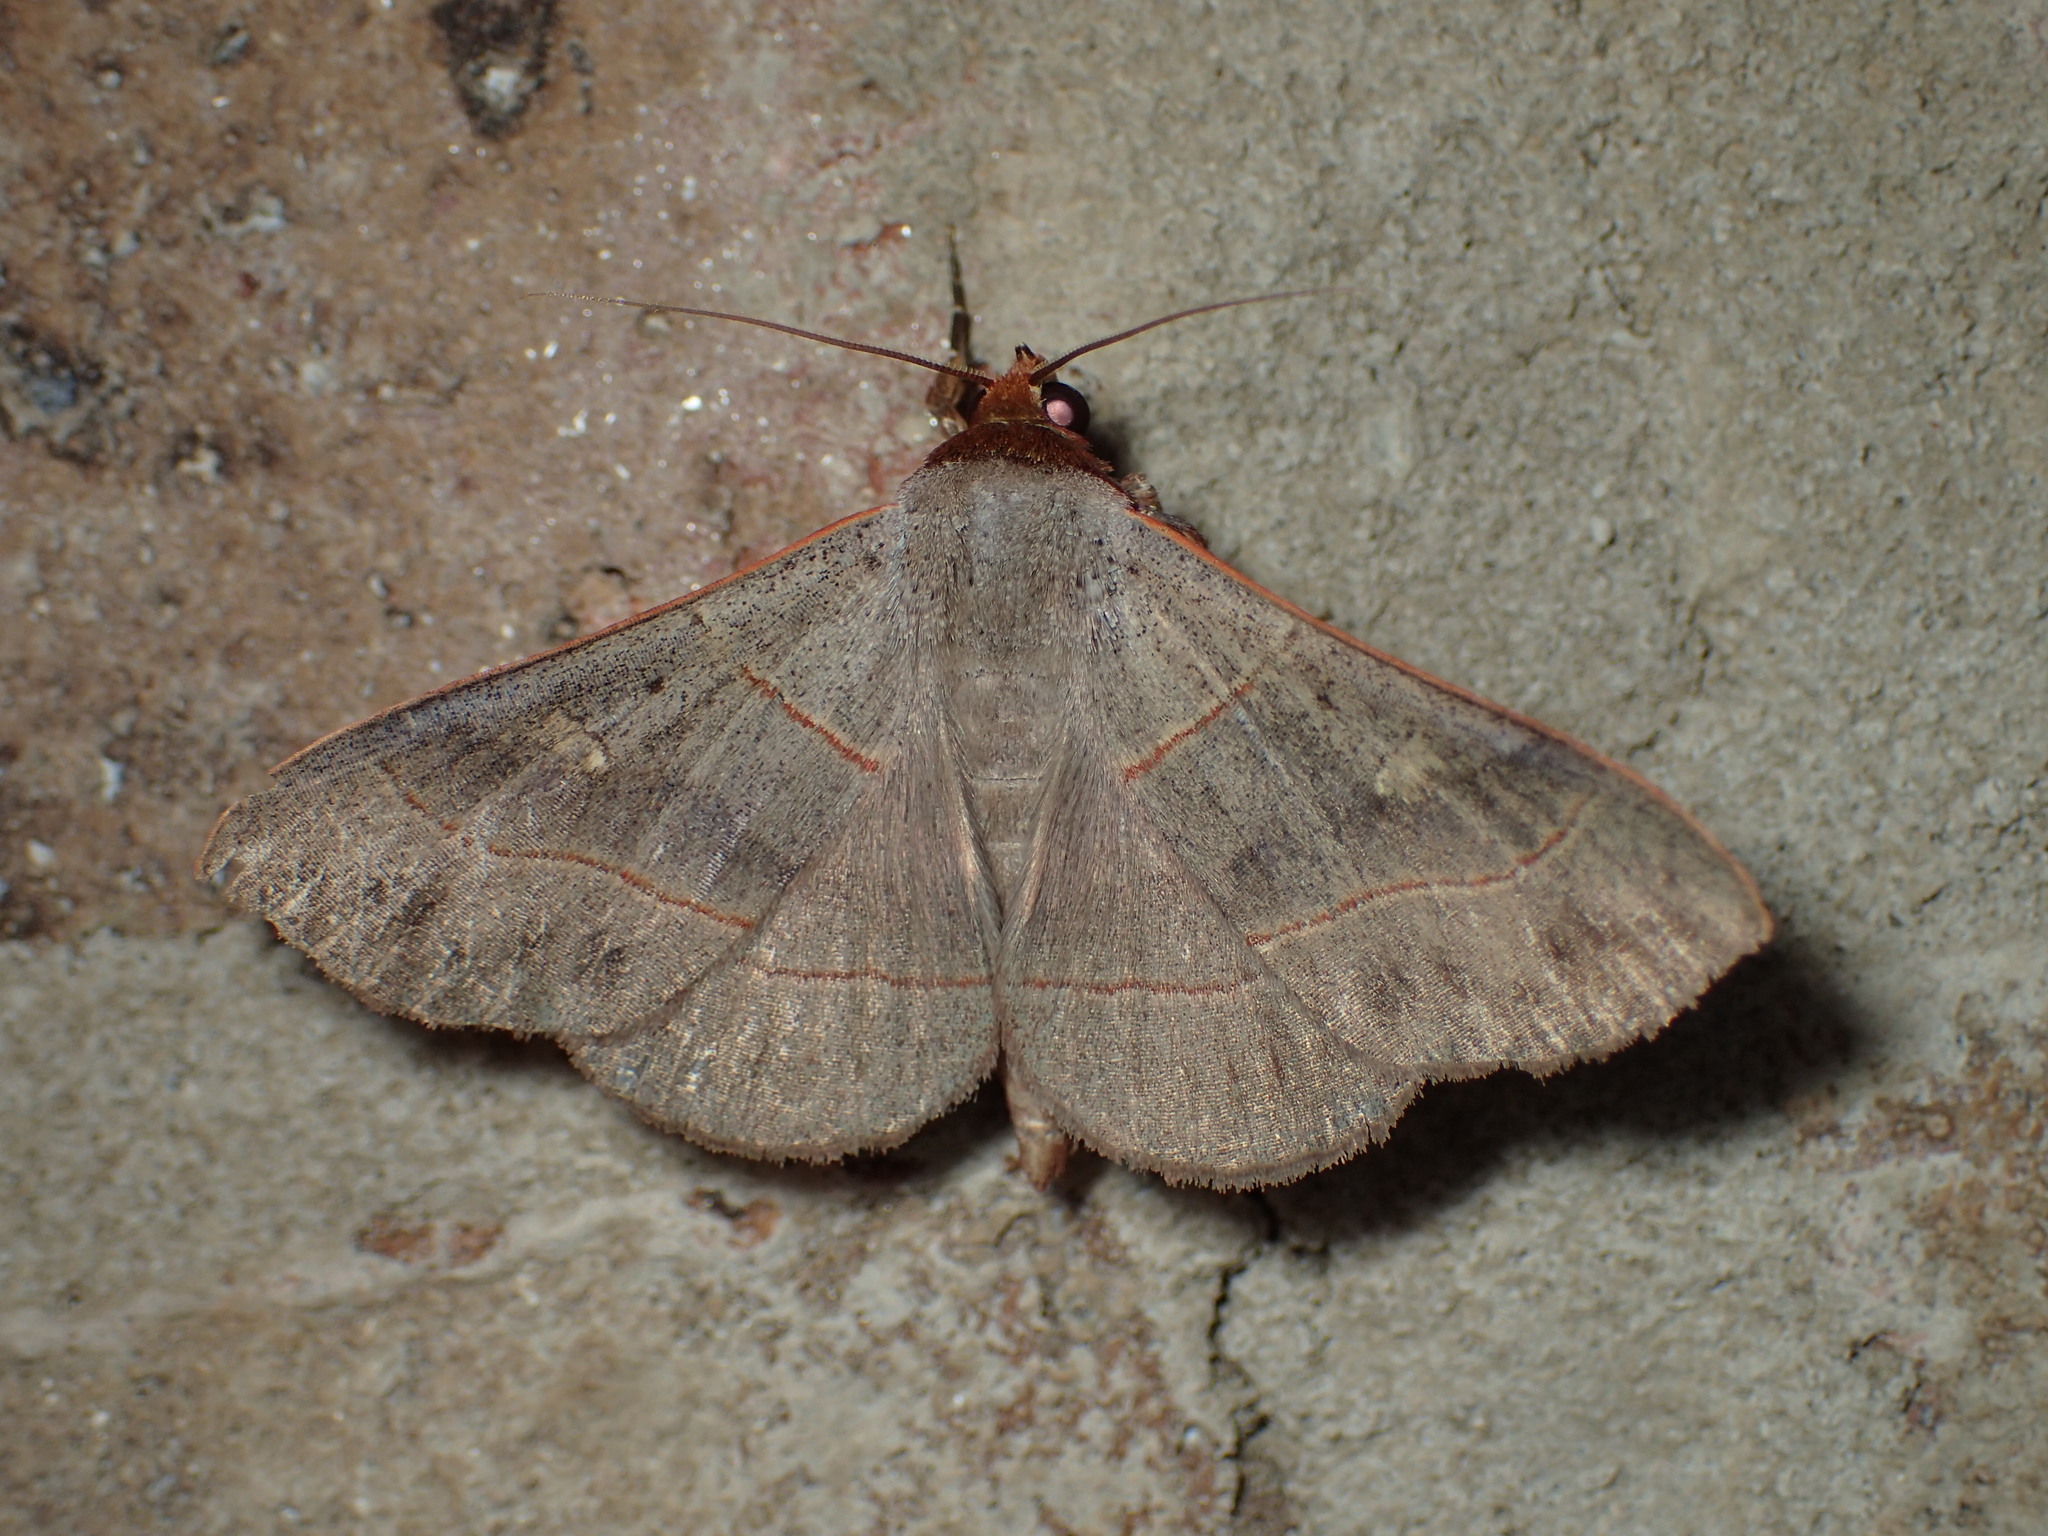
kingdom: Animalia
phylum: Arthropoda
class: Insecta
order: Lepidoptera
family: Erebidae
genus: Panopoda
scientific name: Panopoda rufimargo
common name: Red-lined panopoda moth
